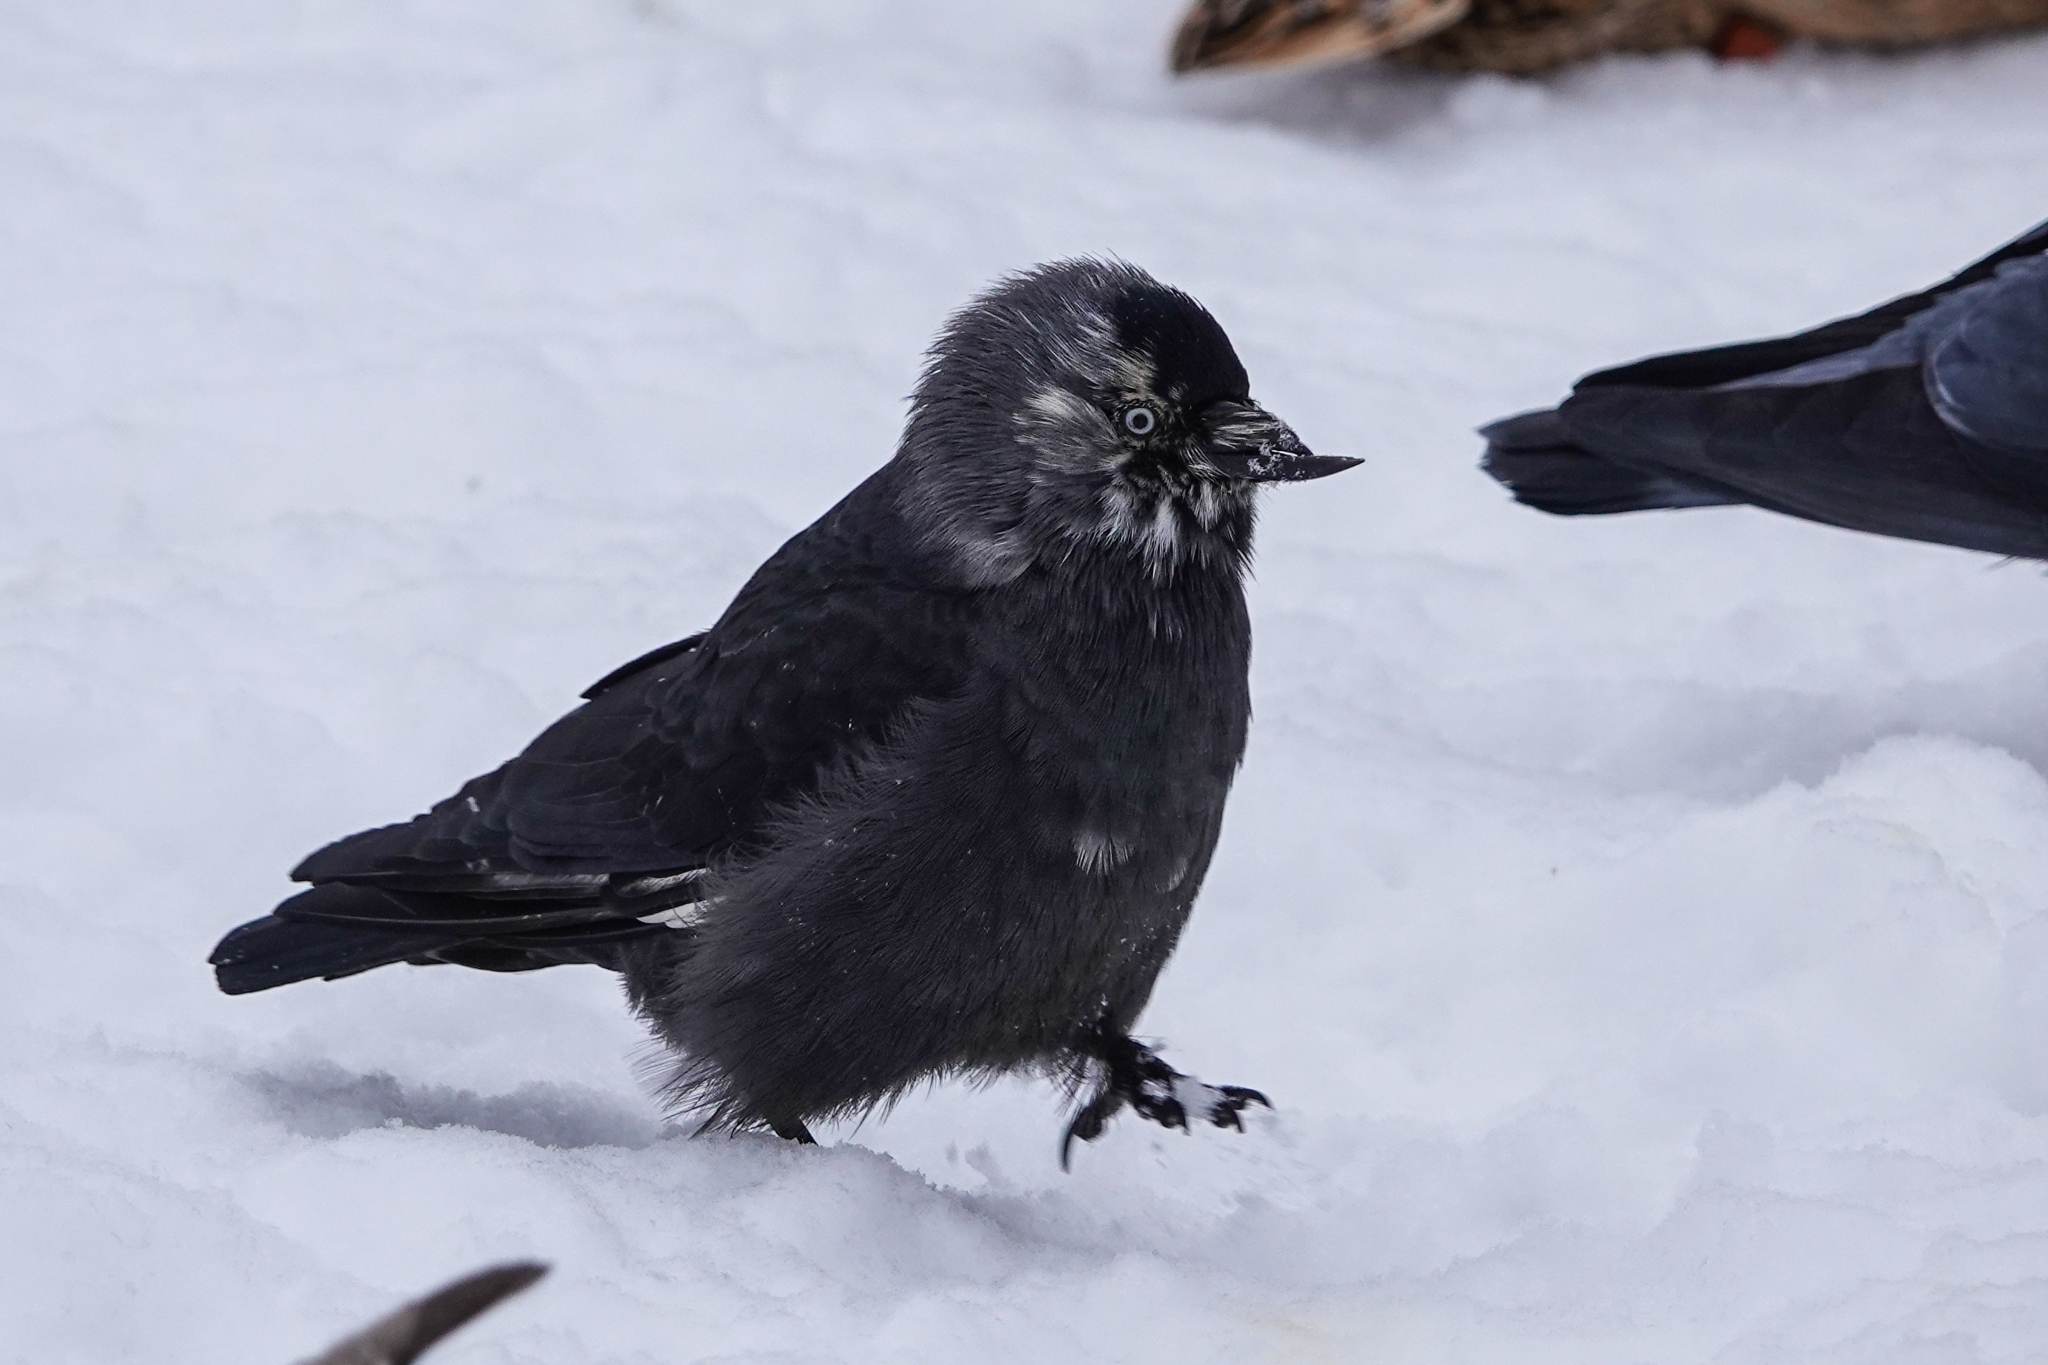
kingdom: Animalia
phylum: Chordata
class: Aves
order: Passeriformes
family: Corvidae
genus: Coloeus
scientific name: Coloeus monedula
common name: Western jackdaw
